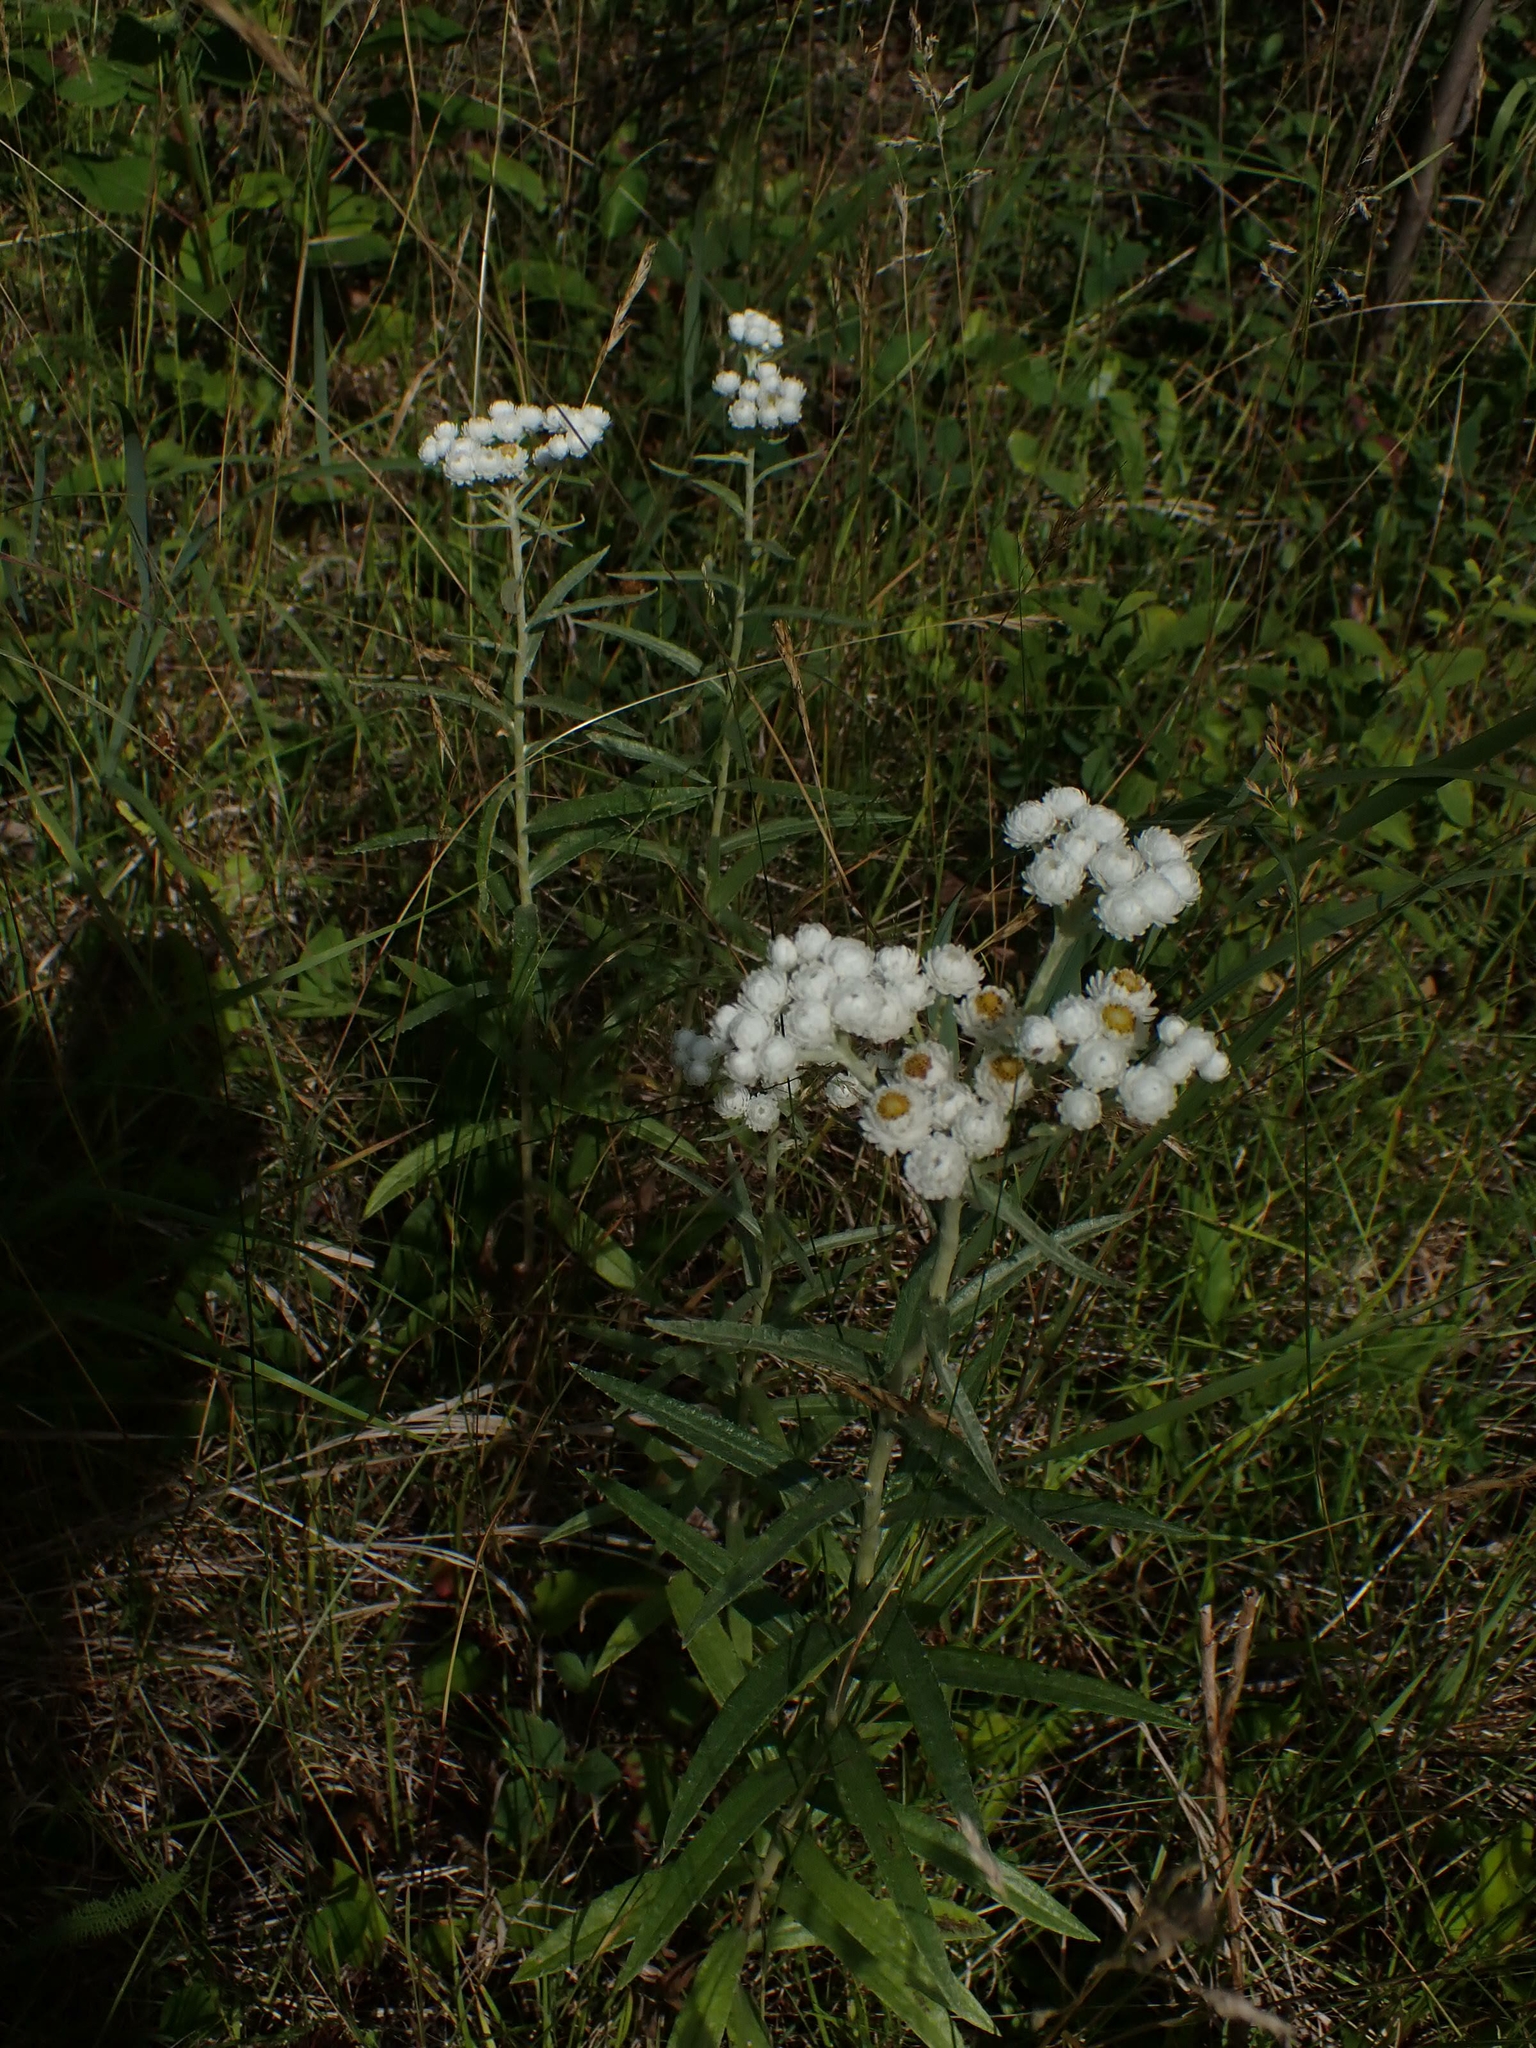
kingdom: Plantae
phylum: Tracheophyta
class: Magnoliopsida
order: Asterales
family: Asteraceae
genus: Anaphalis
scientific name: Anaphalis margaritacea
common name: Pearly everlasting
